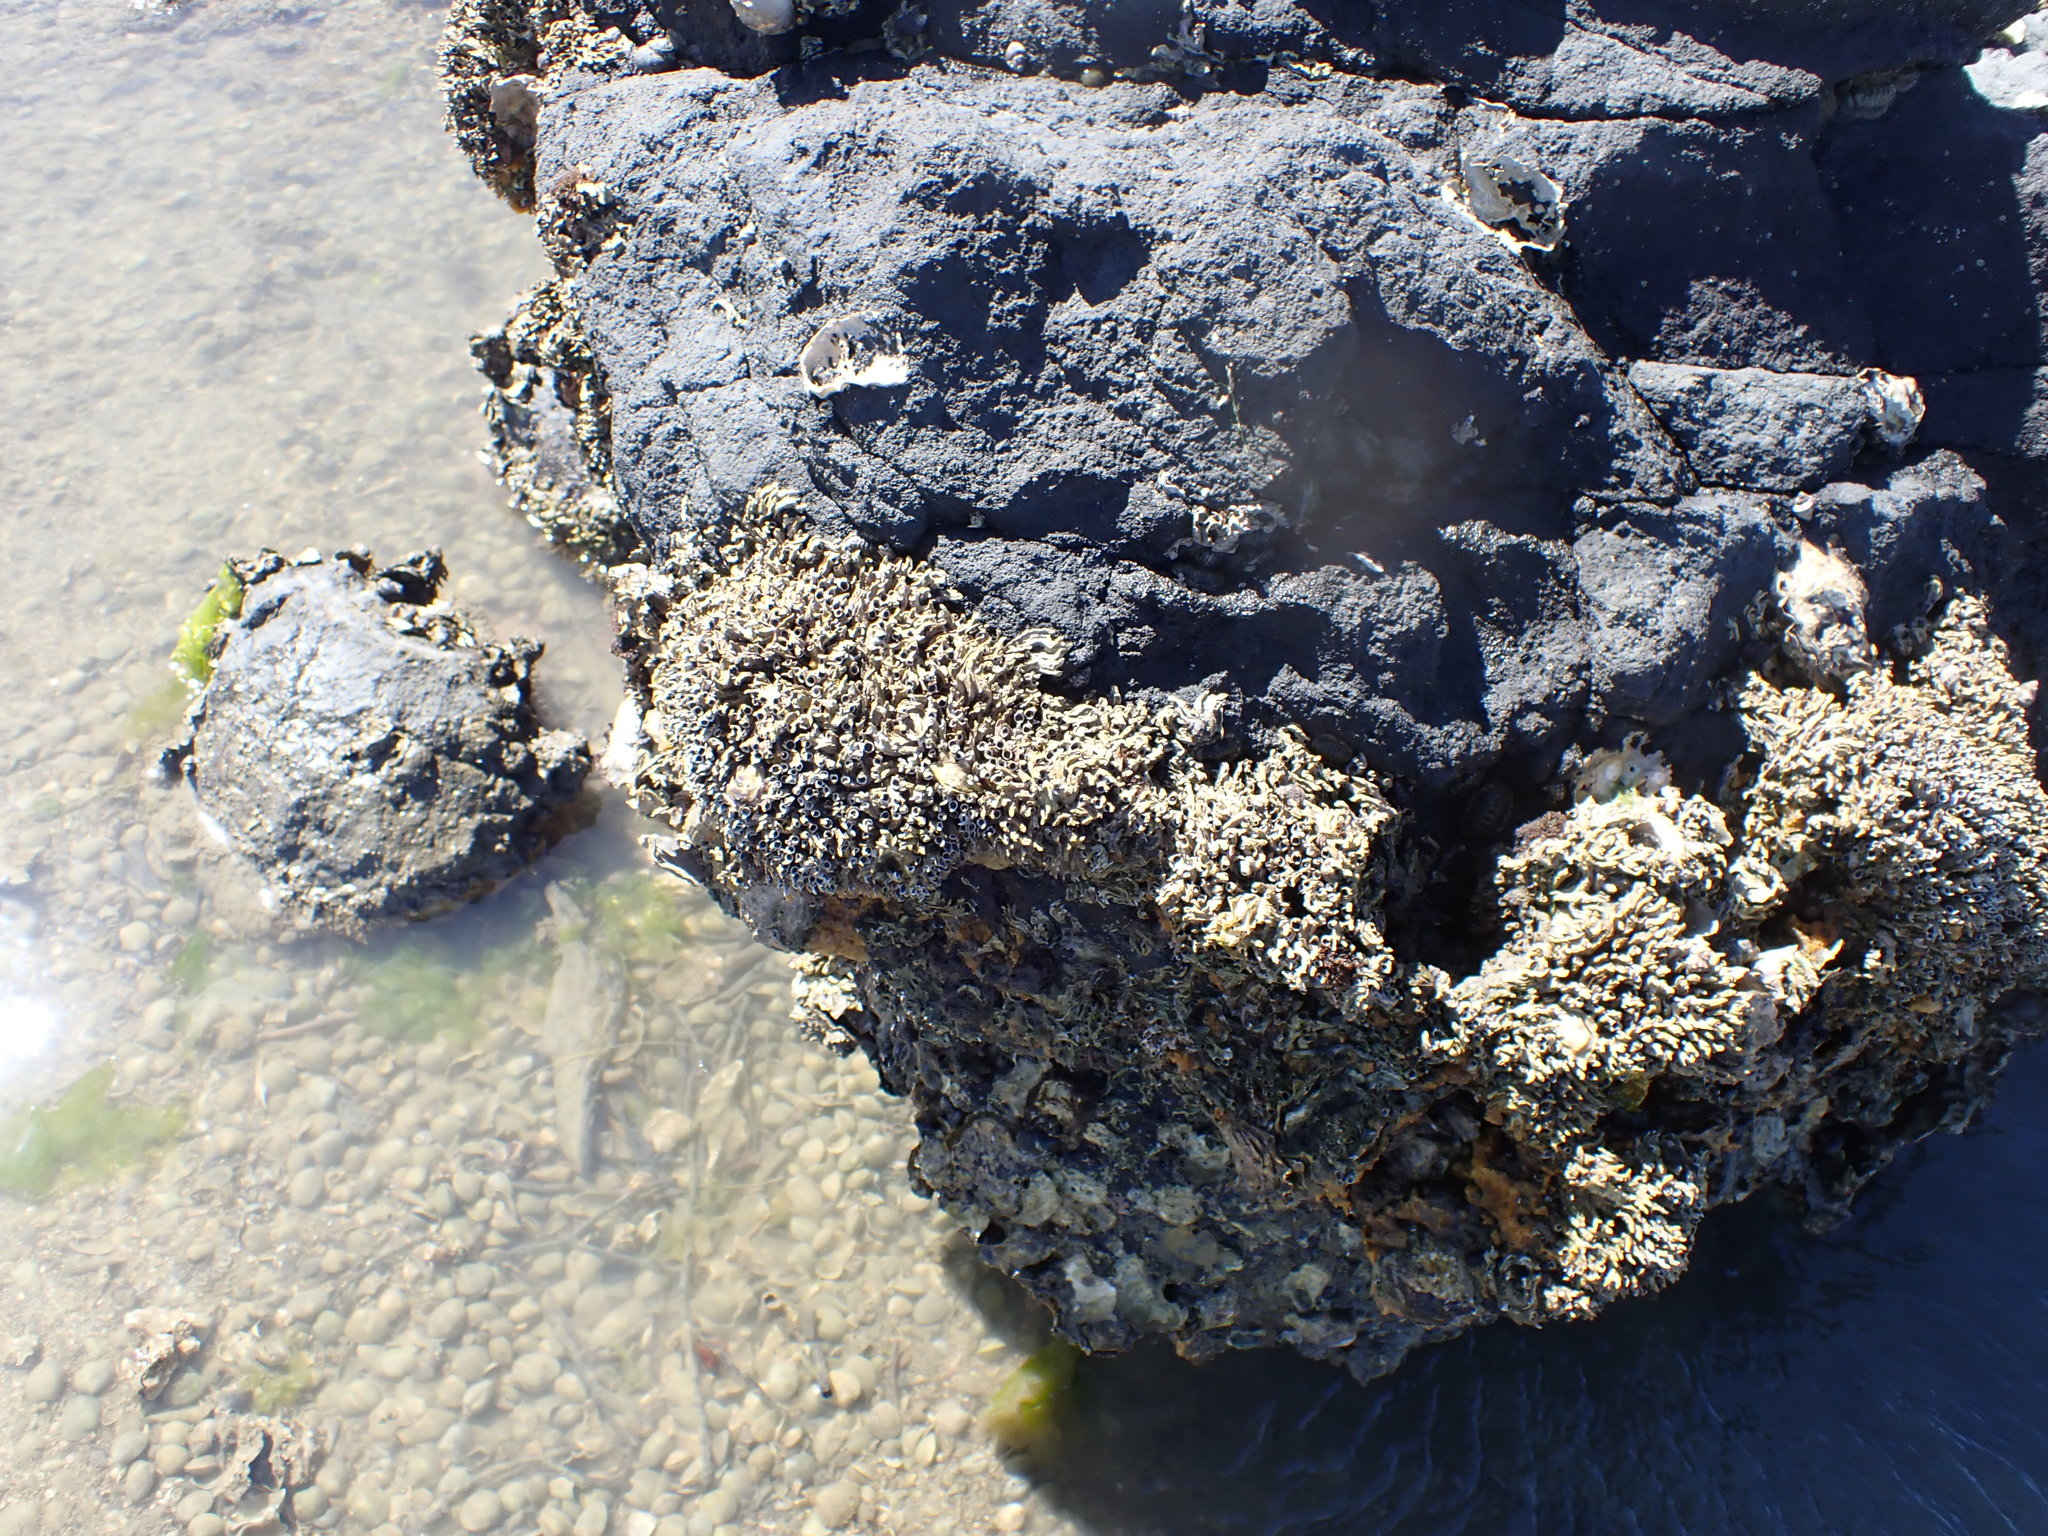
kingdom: Animalia
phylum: Annelida
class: Polychaeta
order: Sabellida
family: Serpulidae
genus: Spirobranchus
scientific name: Spirobranchus cariniferus
